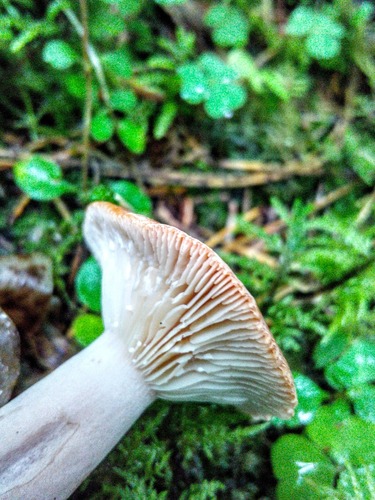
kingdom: Fungi
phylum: Basidiomycota
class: Agaricomycetes
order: Russulales
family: Russulaceae
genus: Lactarius
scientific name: Lactarius rufus
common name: Rufous milk-cap
